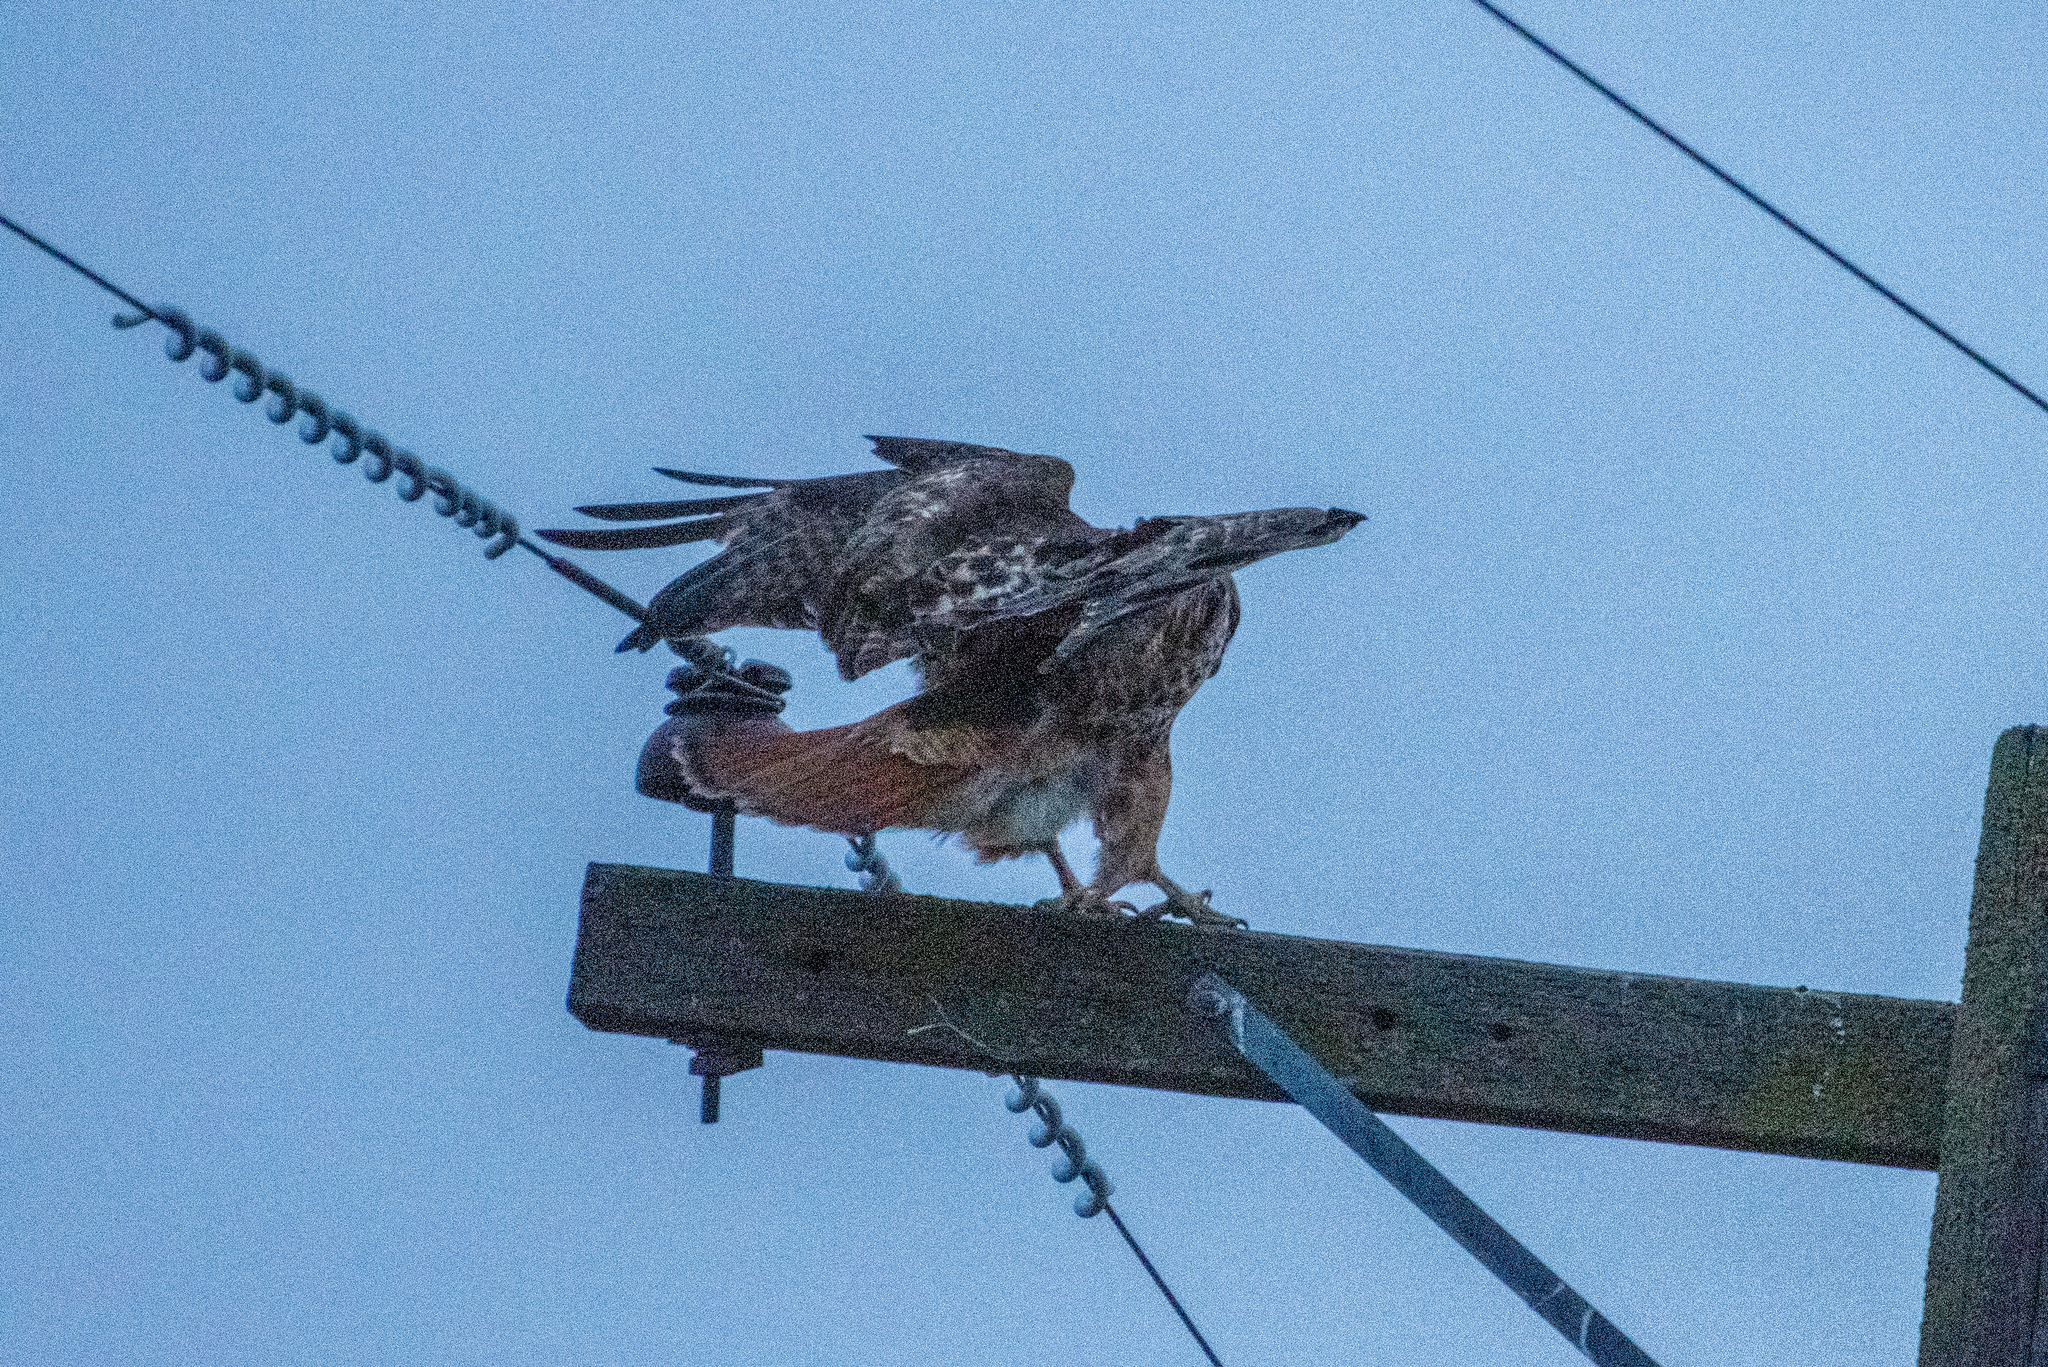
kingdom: Animalia
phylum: Chordata
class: Aves
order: Accipitriformes
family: Accipitridae
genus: Buteo
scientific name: Buteo jamaicensis
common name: Red-tailed hawk
